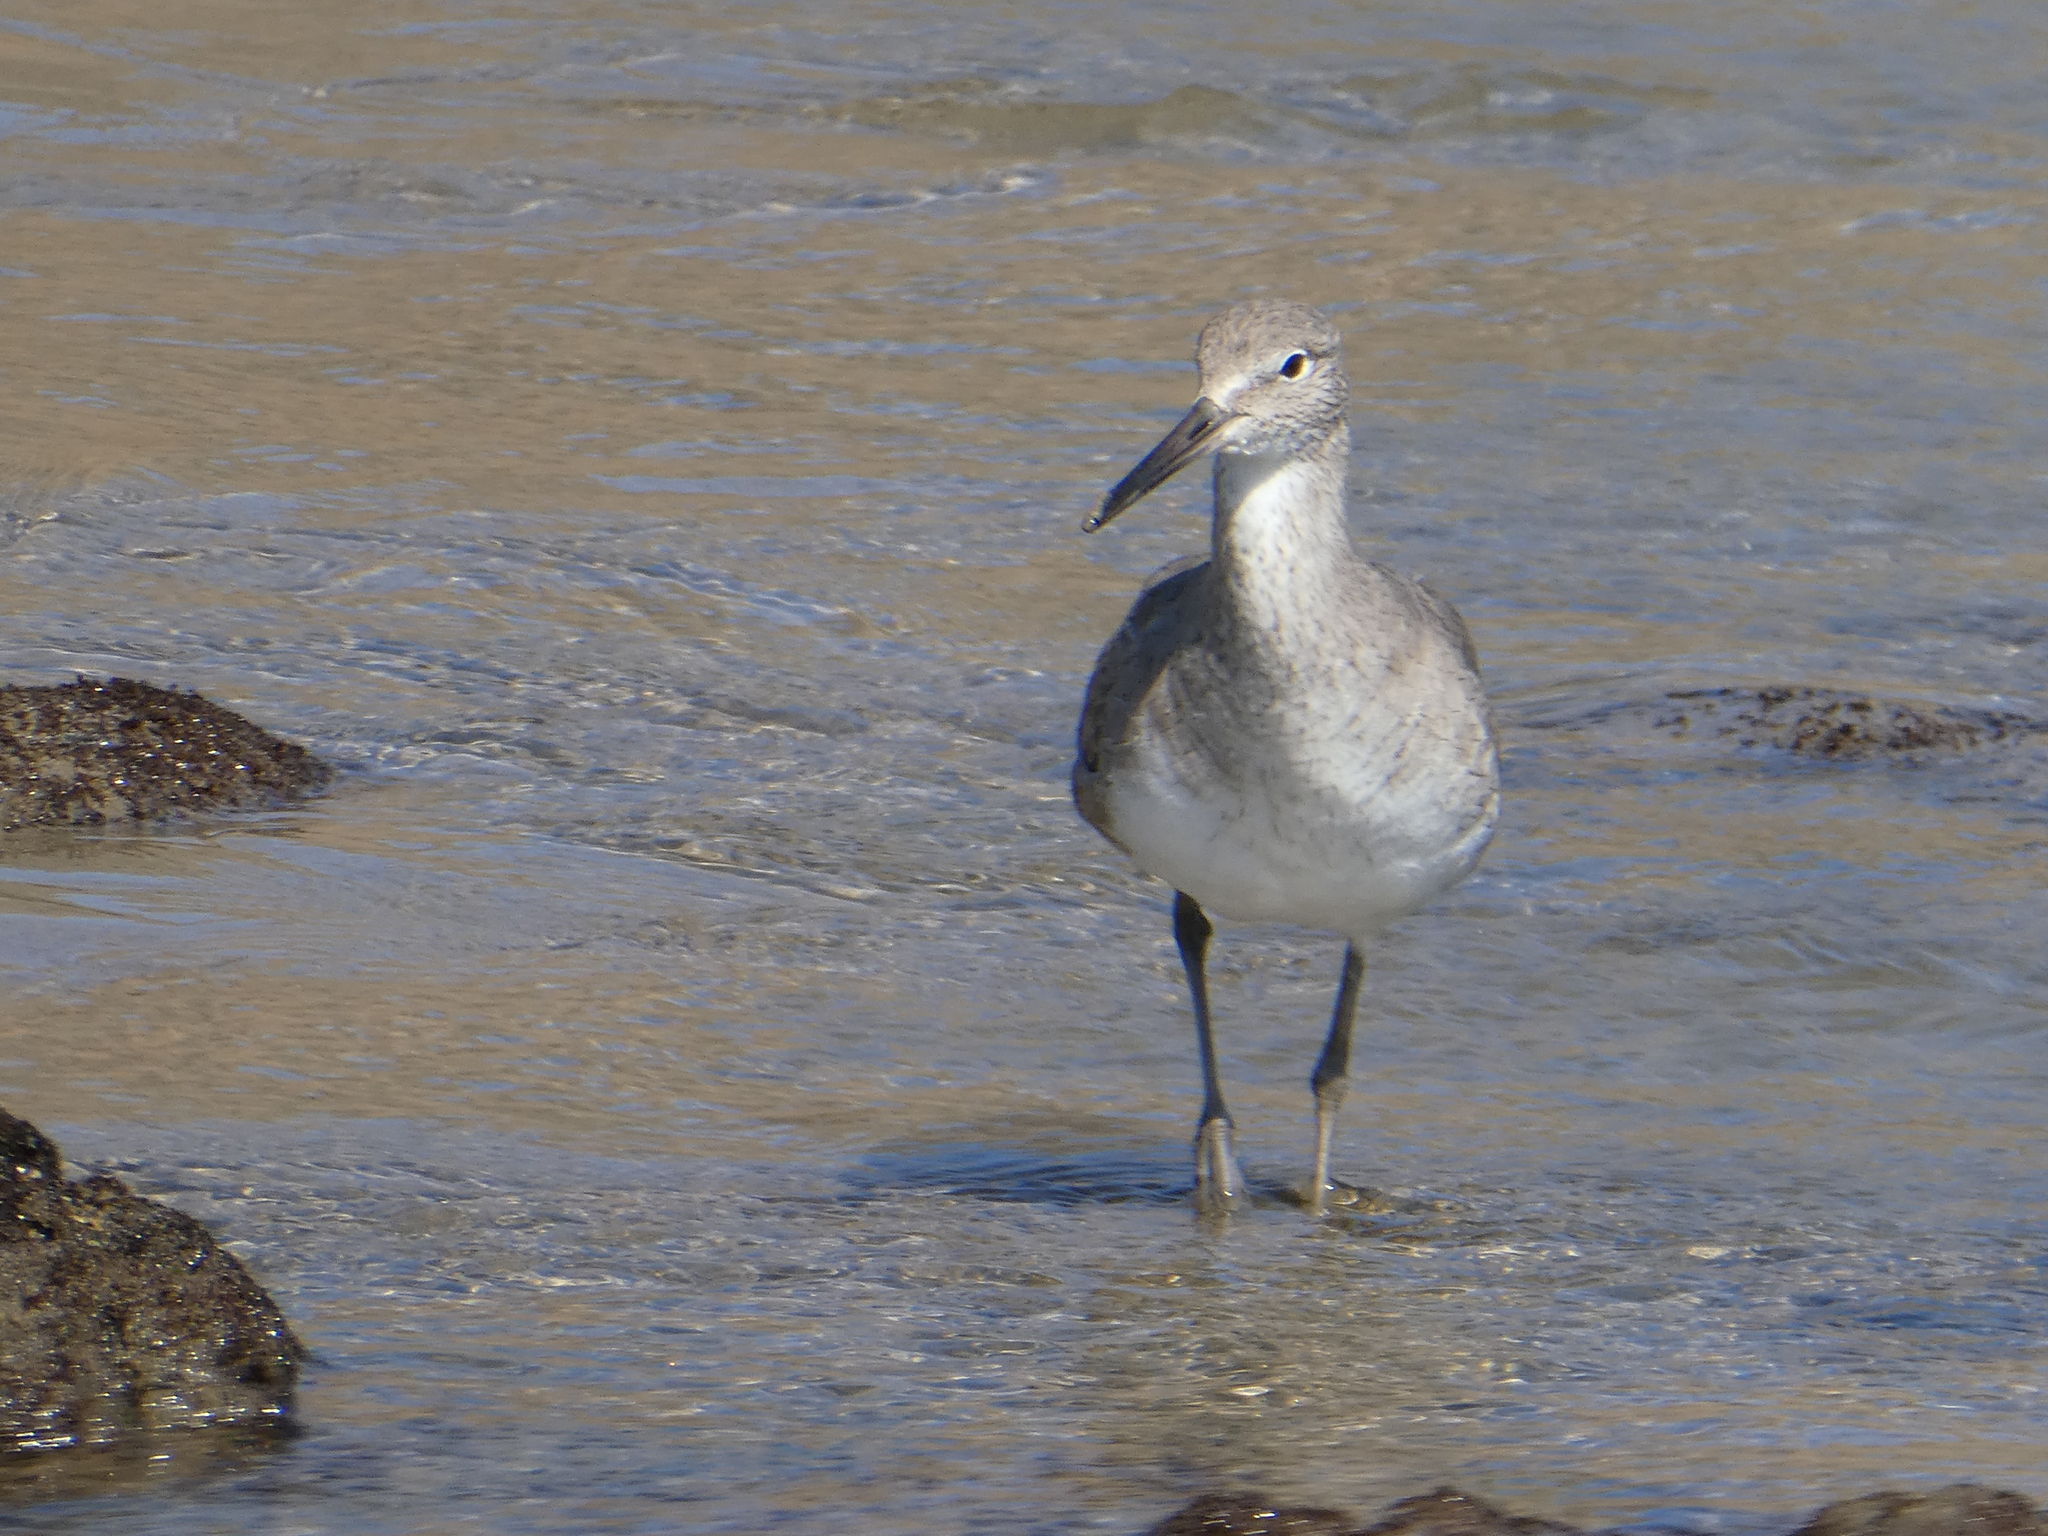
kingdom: Animalia
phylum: Chordata
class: Aves
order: Charadriiformes
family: Scolopacidae
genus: Tringa
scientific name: Tringa semipalmata
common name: Willet
